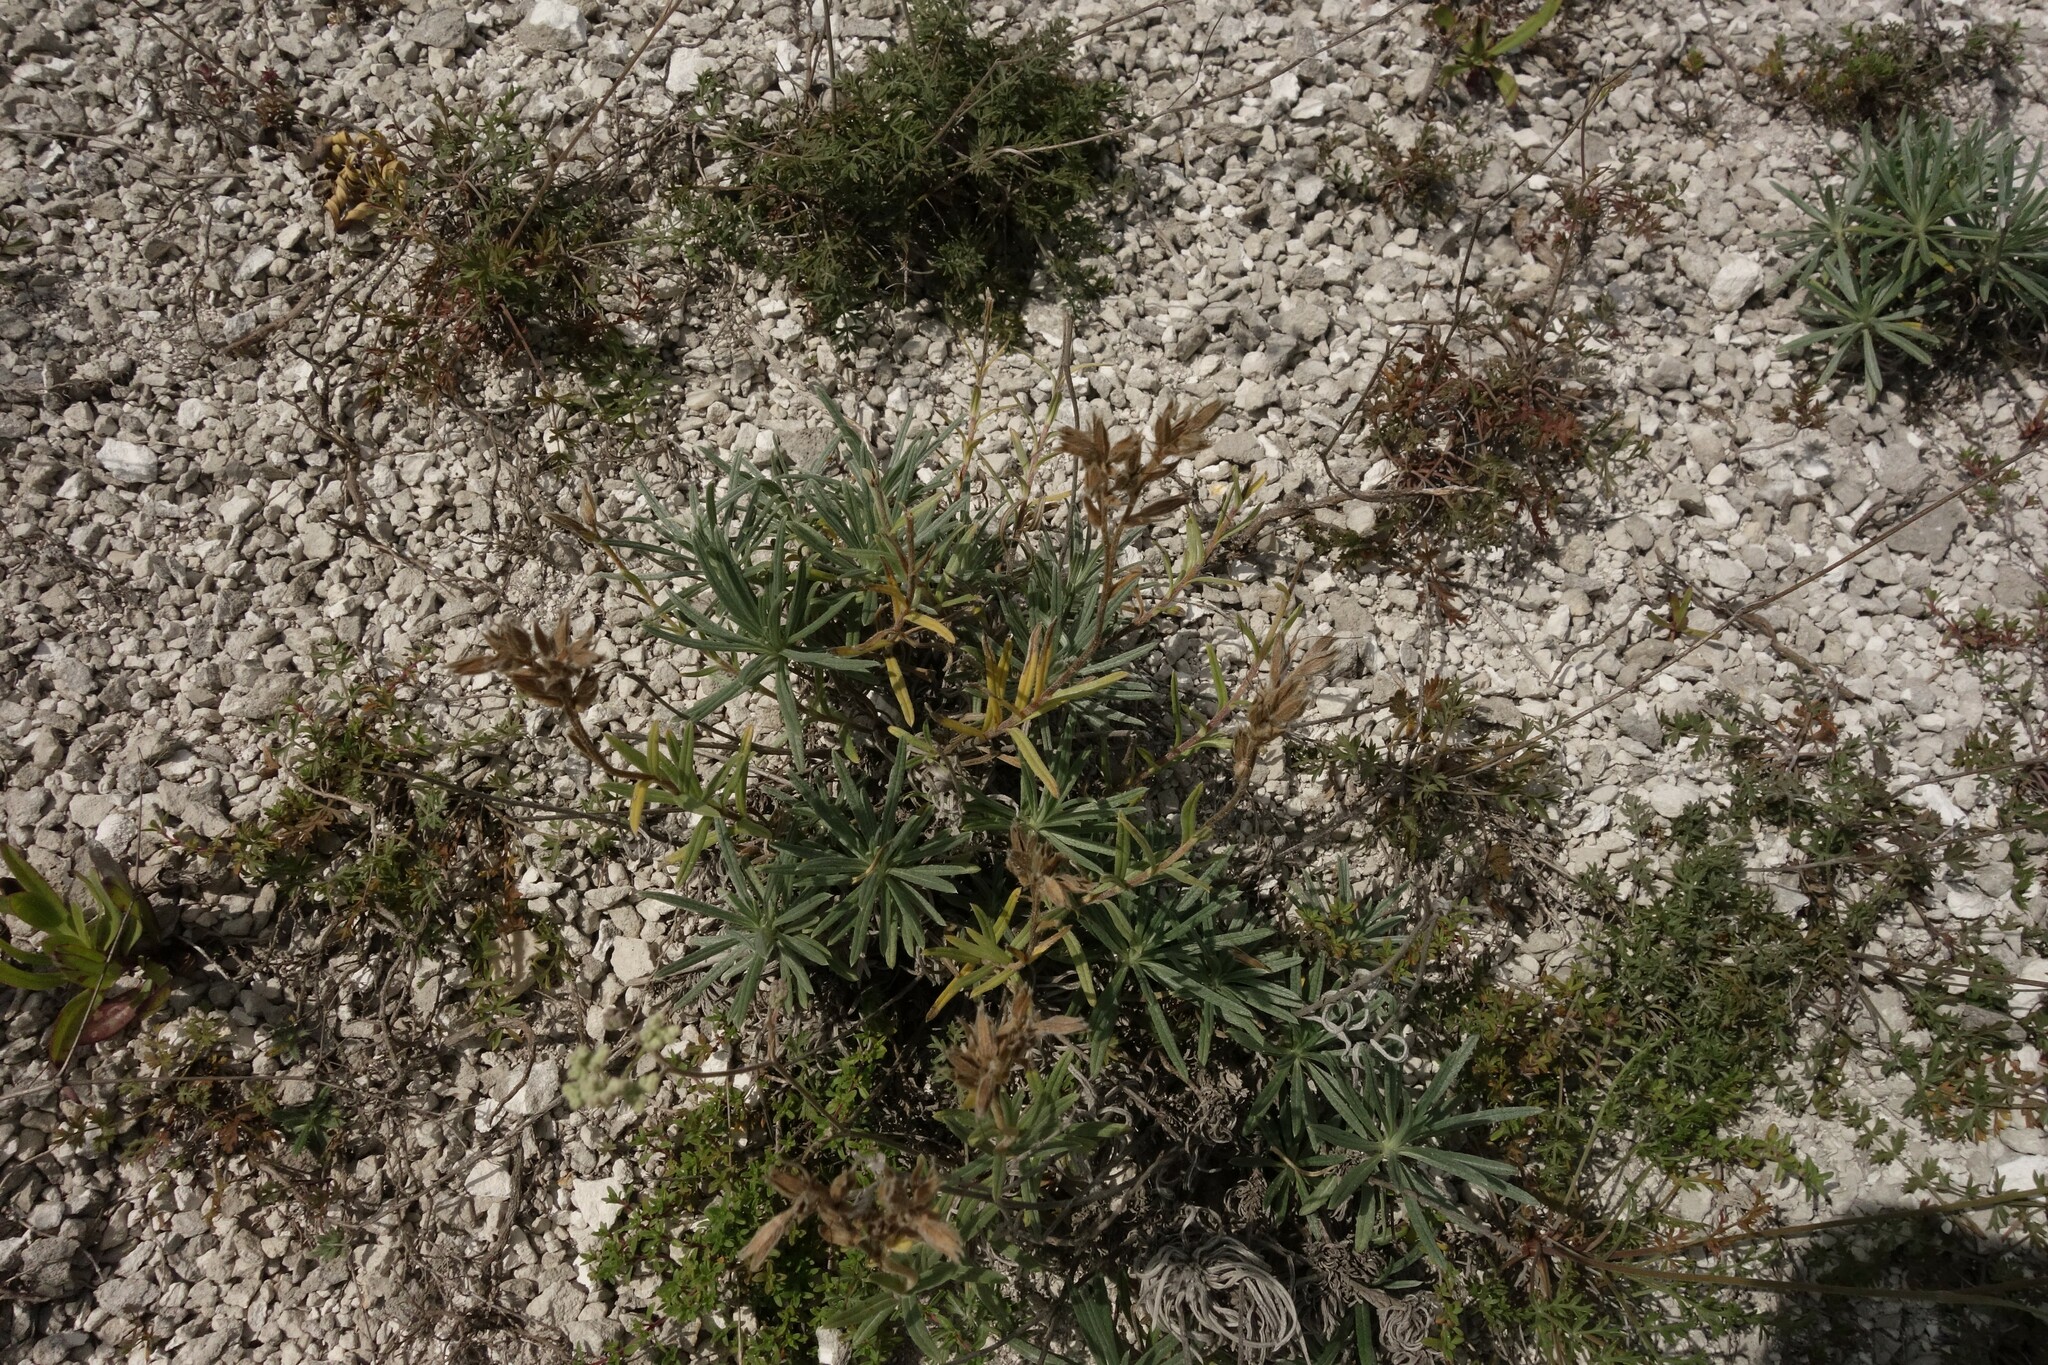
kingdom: Plantae
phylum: Tracheophyta
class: Magnoliopsida
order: Boraginales
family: Boraginaceae
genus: Onosma
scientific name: Onosma simplicissima
